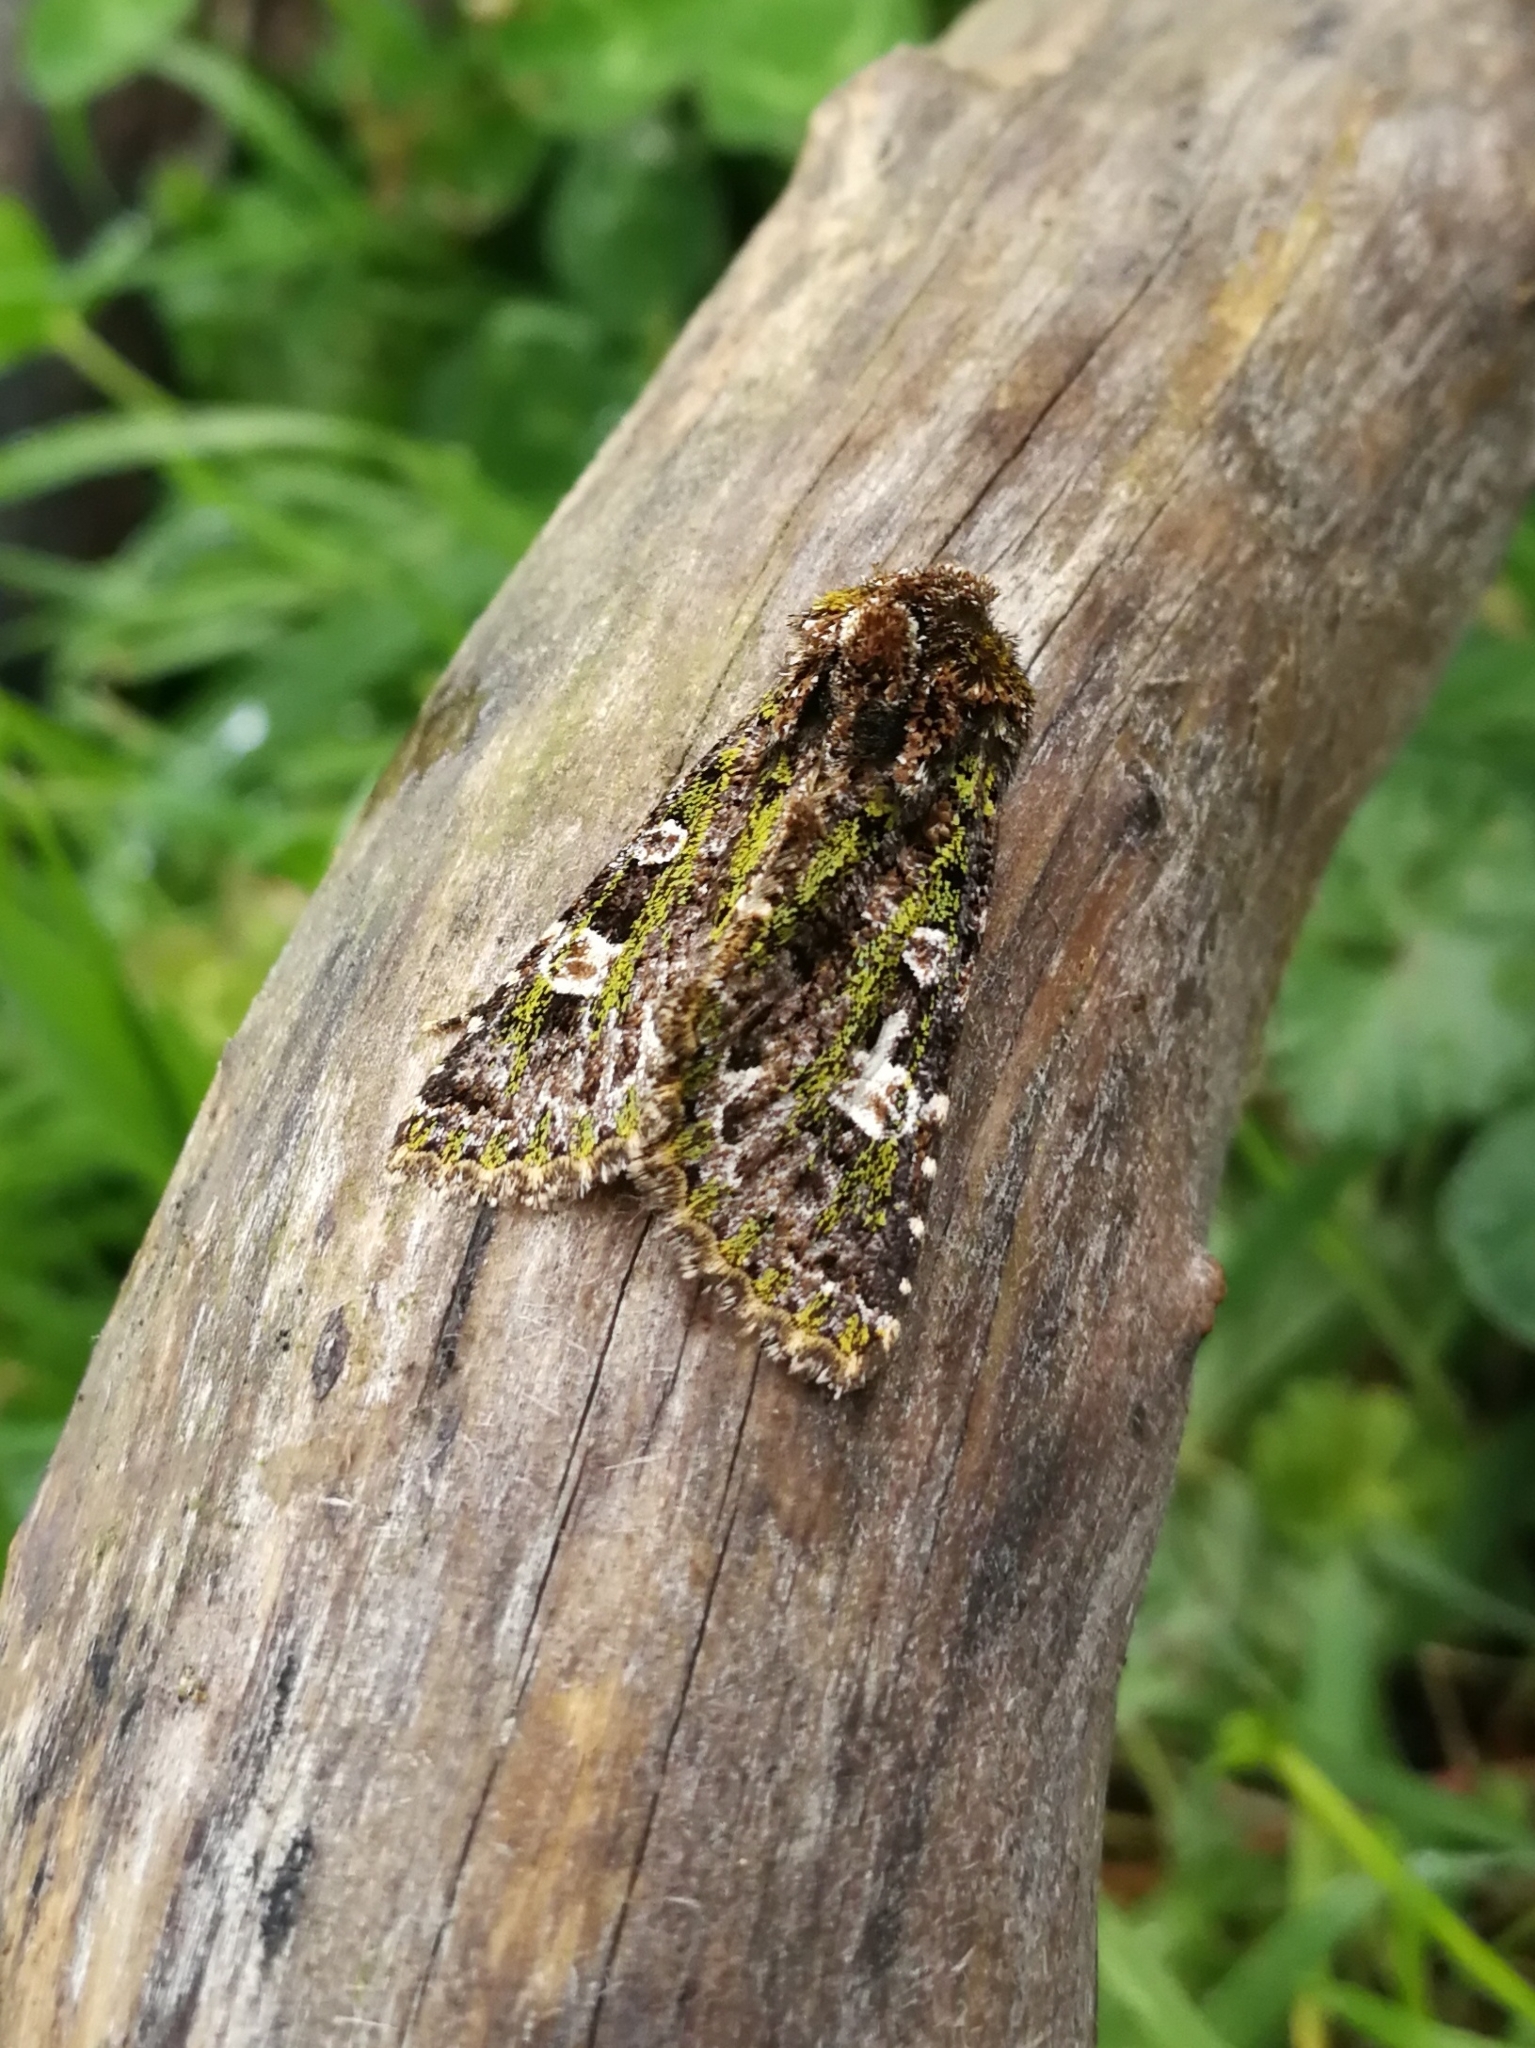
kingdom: Animalia
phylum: Arthropoda
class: Insecta
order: Lepidoptera
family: Noctuidae
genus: Valeria
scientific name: Valeria jaspidea
